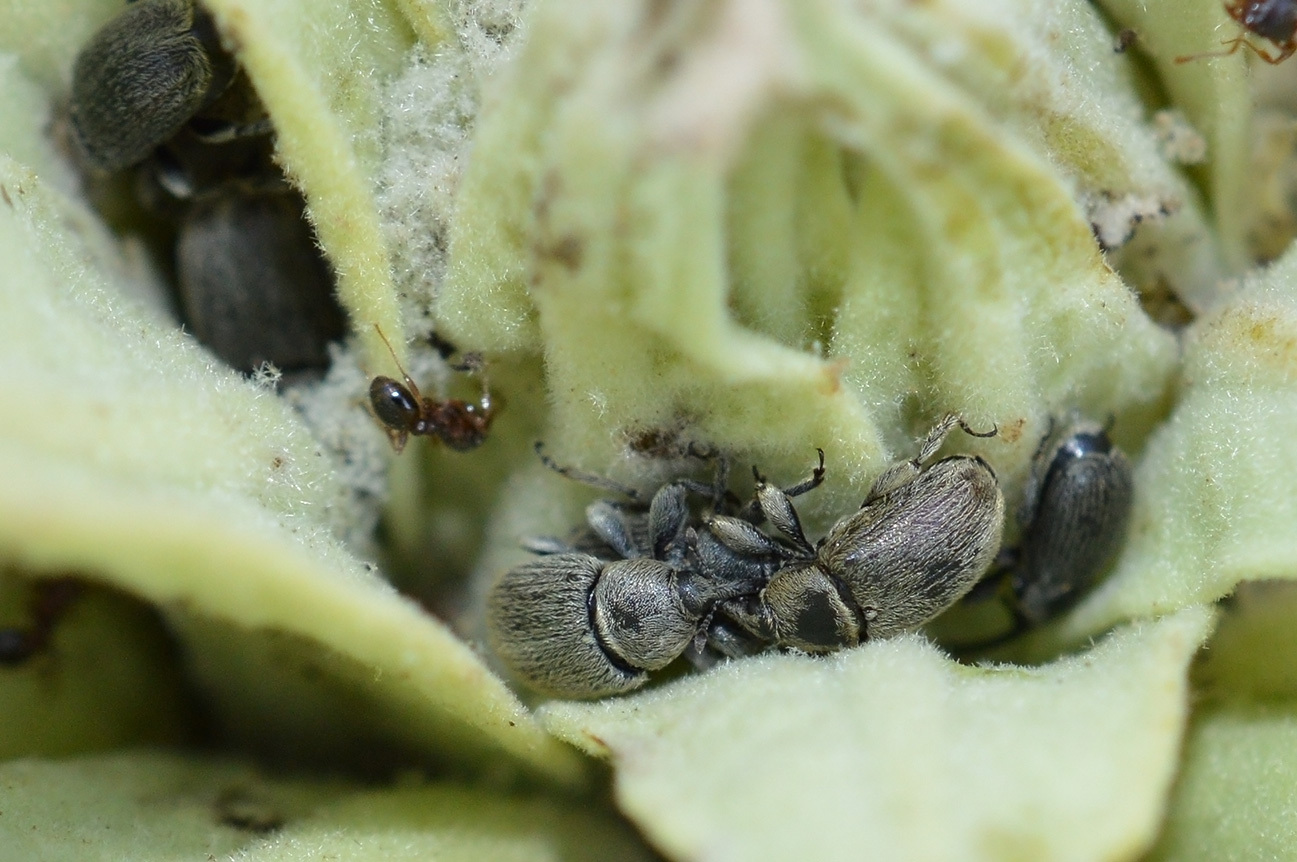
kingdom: Animalia
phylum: Arthropoda
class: Insecta
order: Coleoptera
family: Curculionidae
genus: Rhinusa
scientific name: Rhinusa asellus
